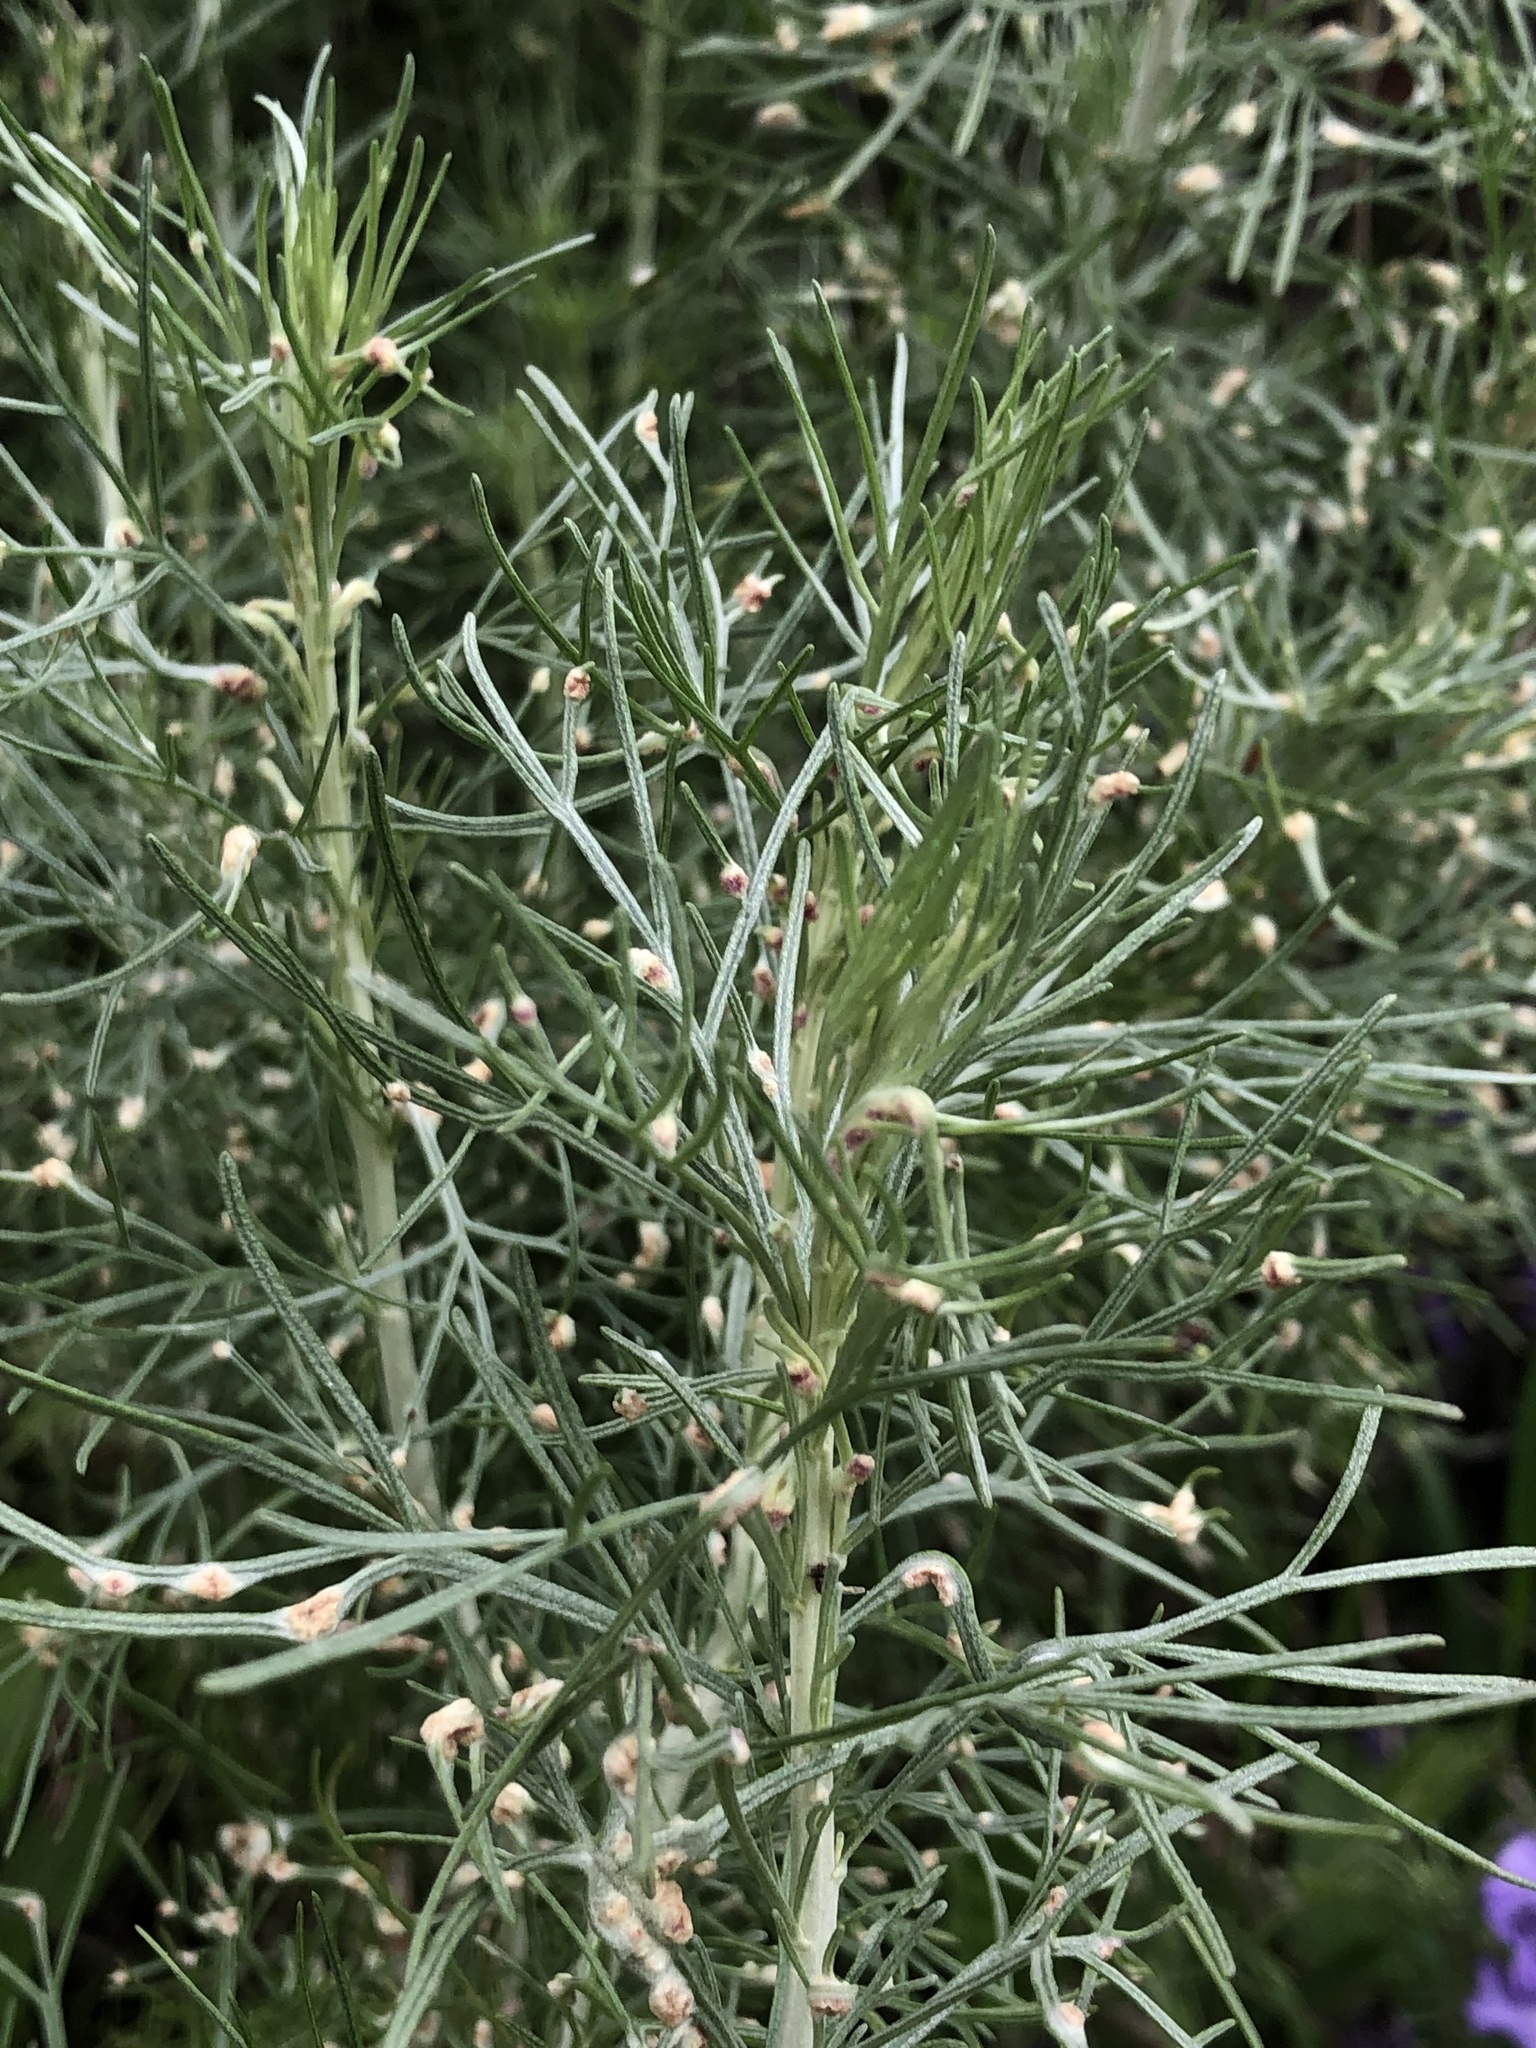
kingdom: Animalia
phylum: Arthropoda
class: Arachnida
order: Trombidiformes
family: Eriophyidae
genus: Aceria
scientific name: Aceria
